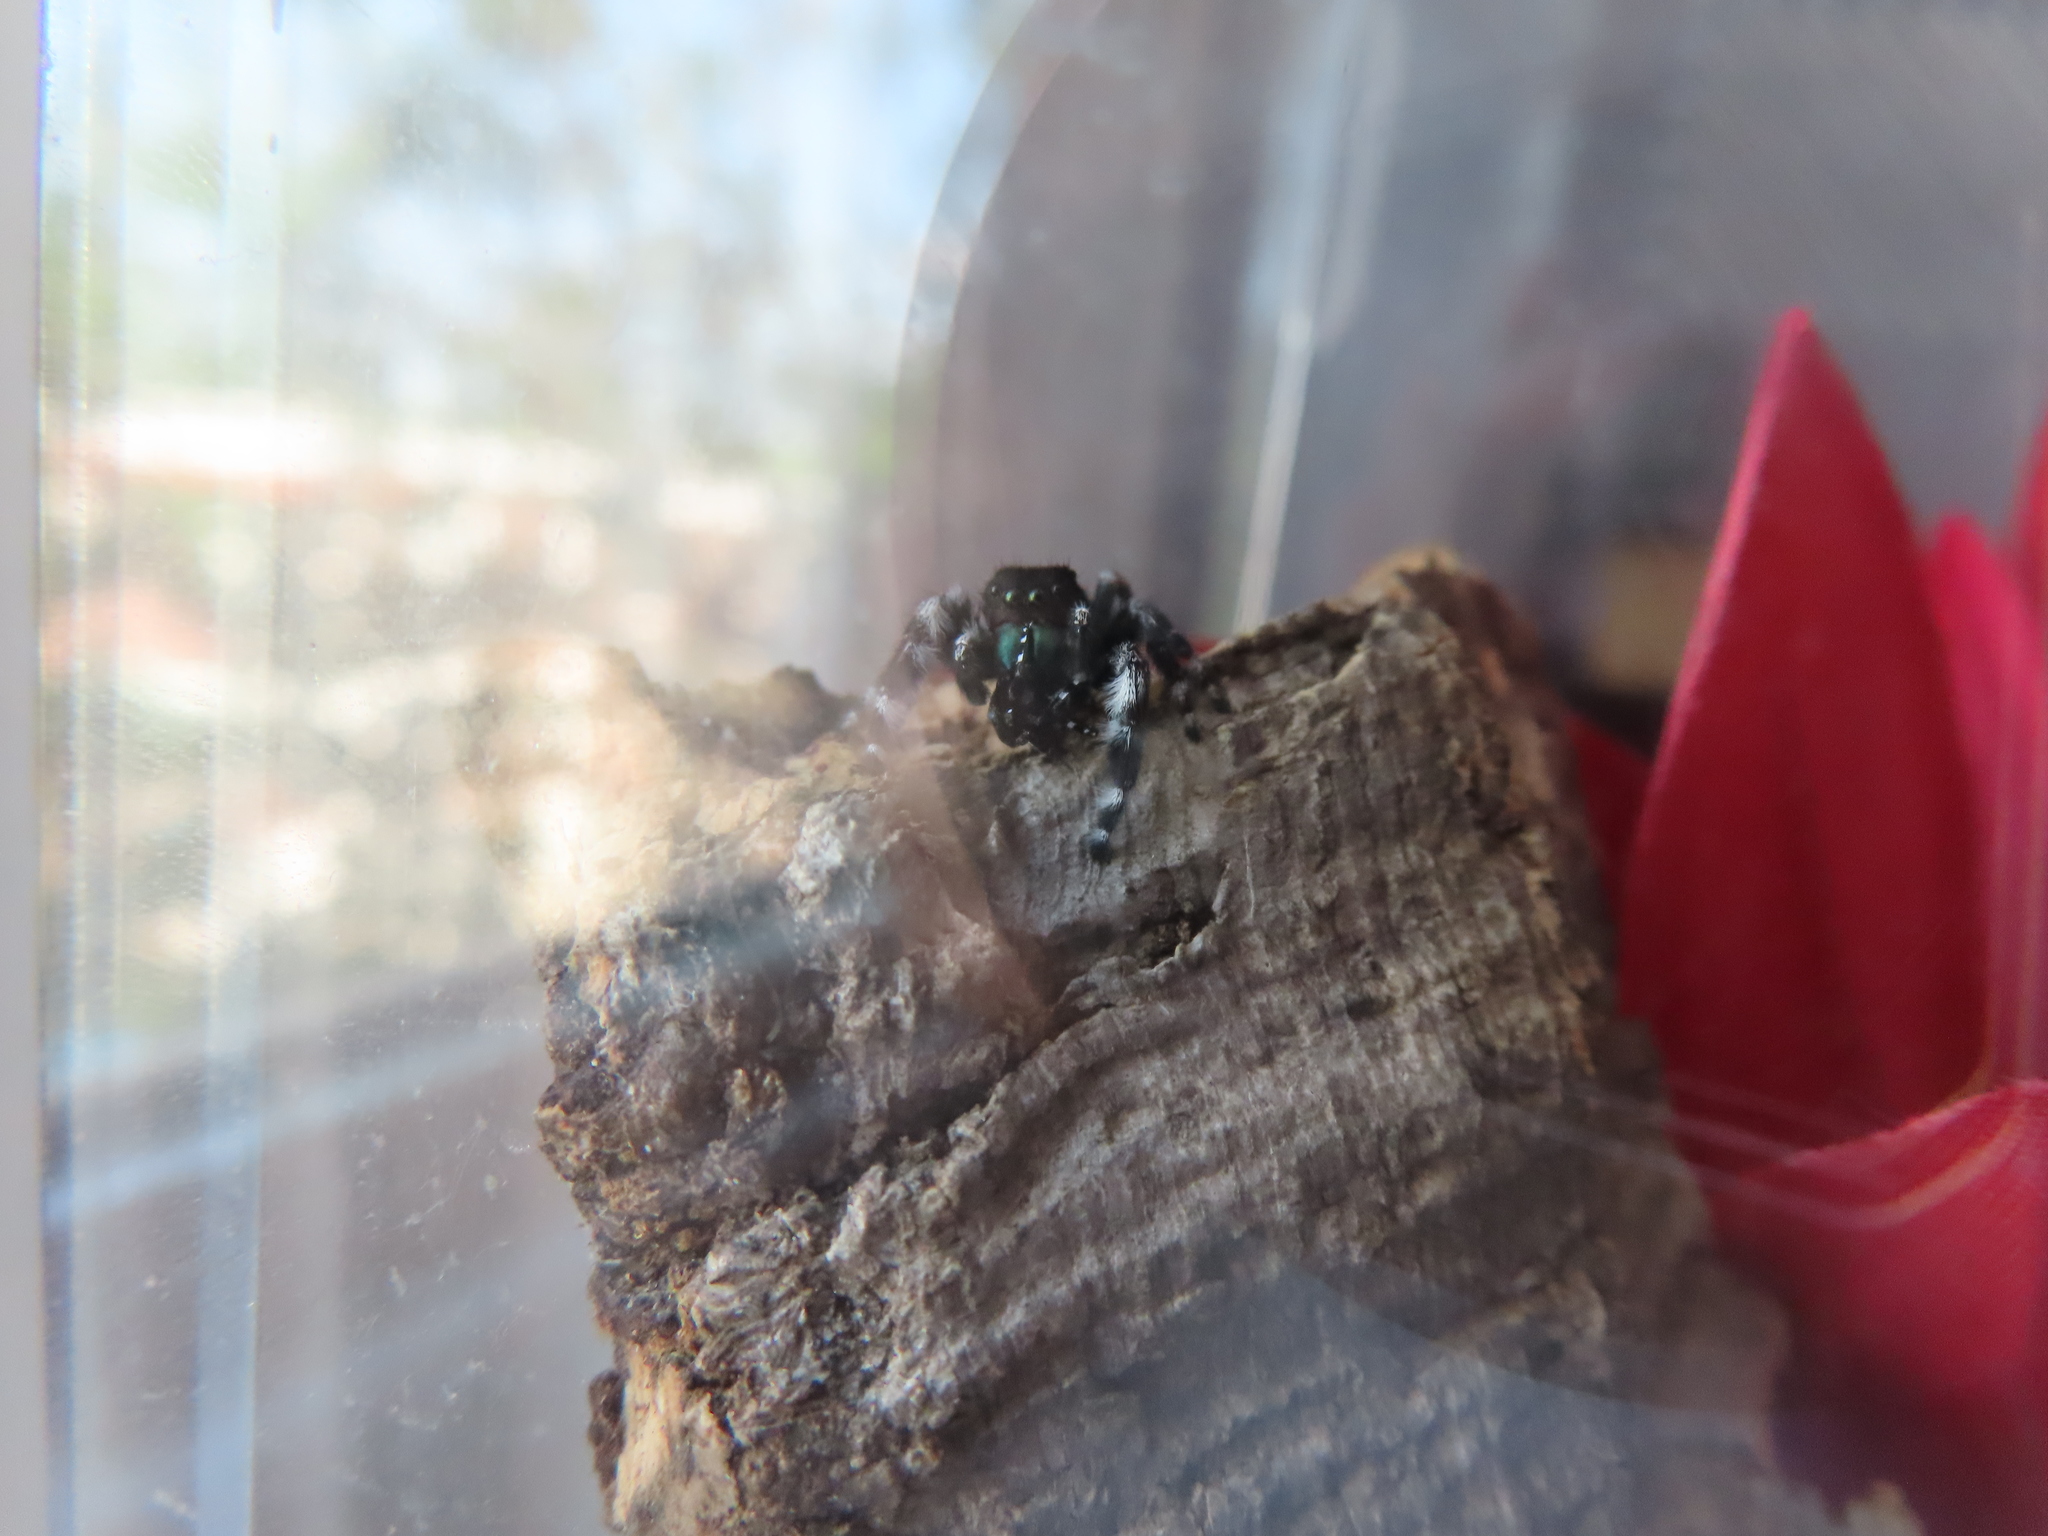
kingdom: Animalia
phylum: Arthropoda
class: Insecta
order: Hemiptera
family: Fulgoridae
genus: Lycorma
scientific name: Lycorma delicatula
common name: Spotted lanternfly
